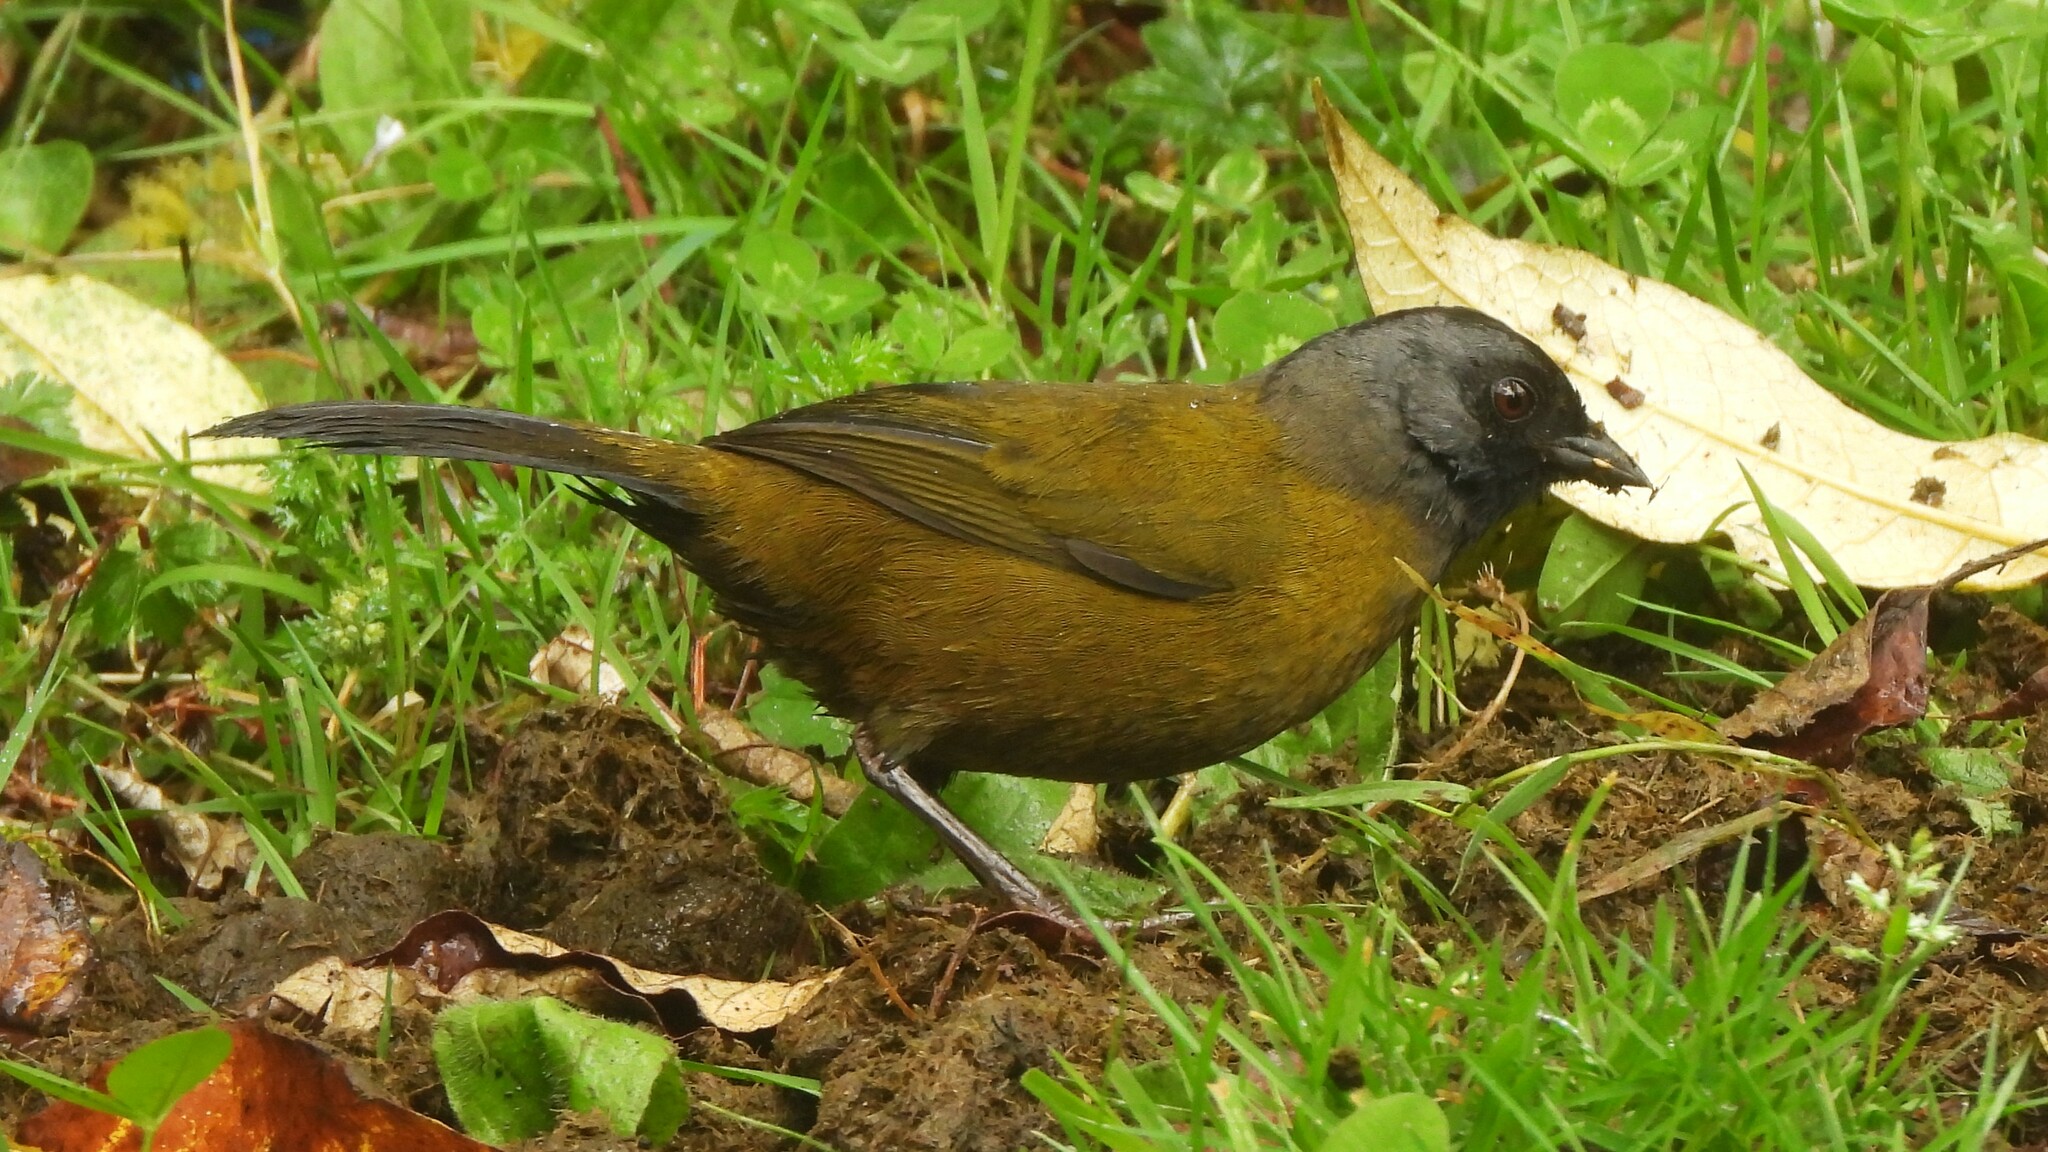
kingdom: Animalia
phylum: Chordata
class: Aves
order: Passeriformes
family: Passerellidae
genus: Pezopetes
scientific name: Pezopetes capitalis
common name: Large-footed finch
